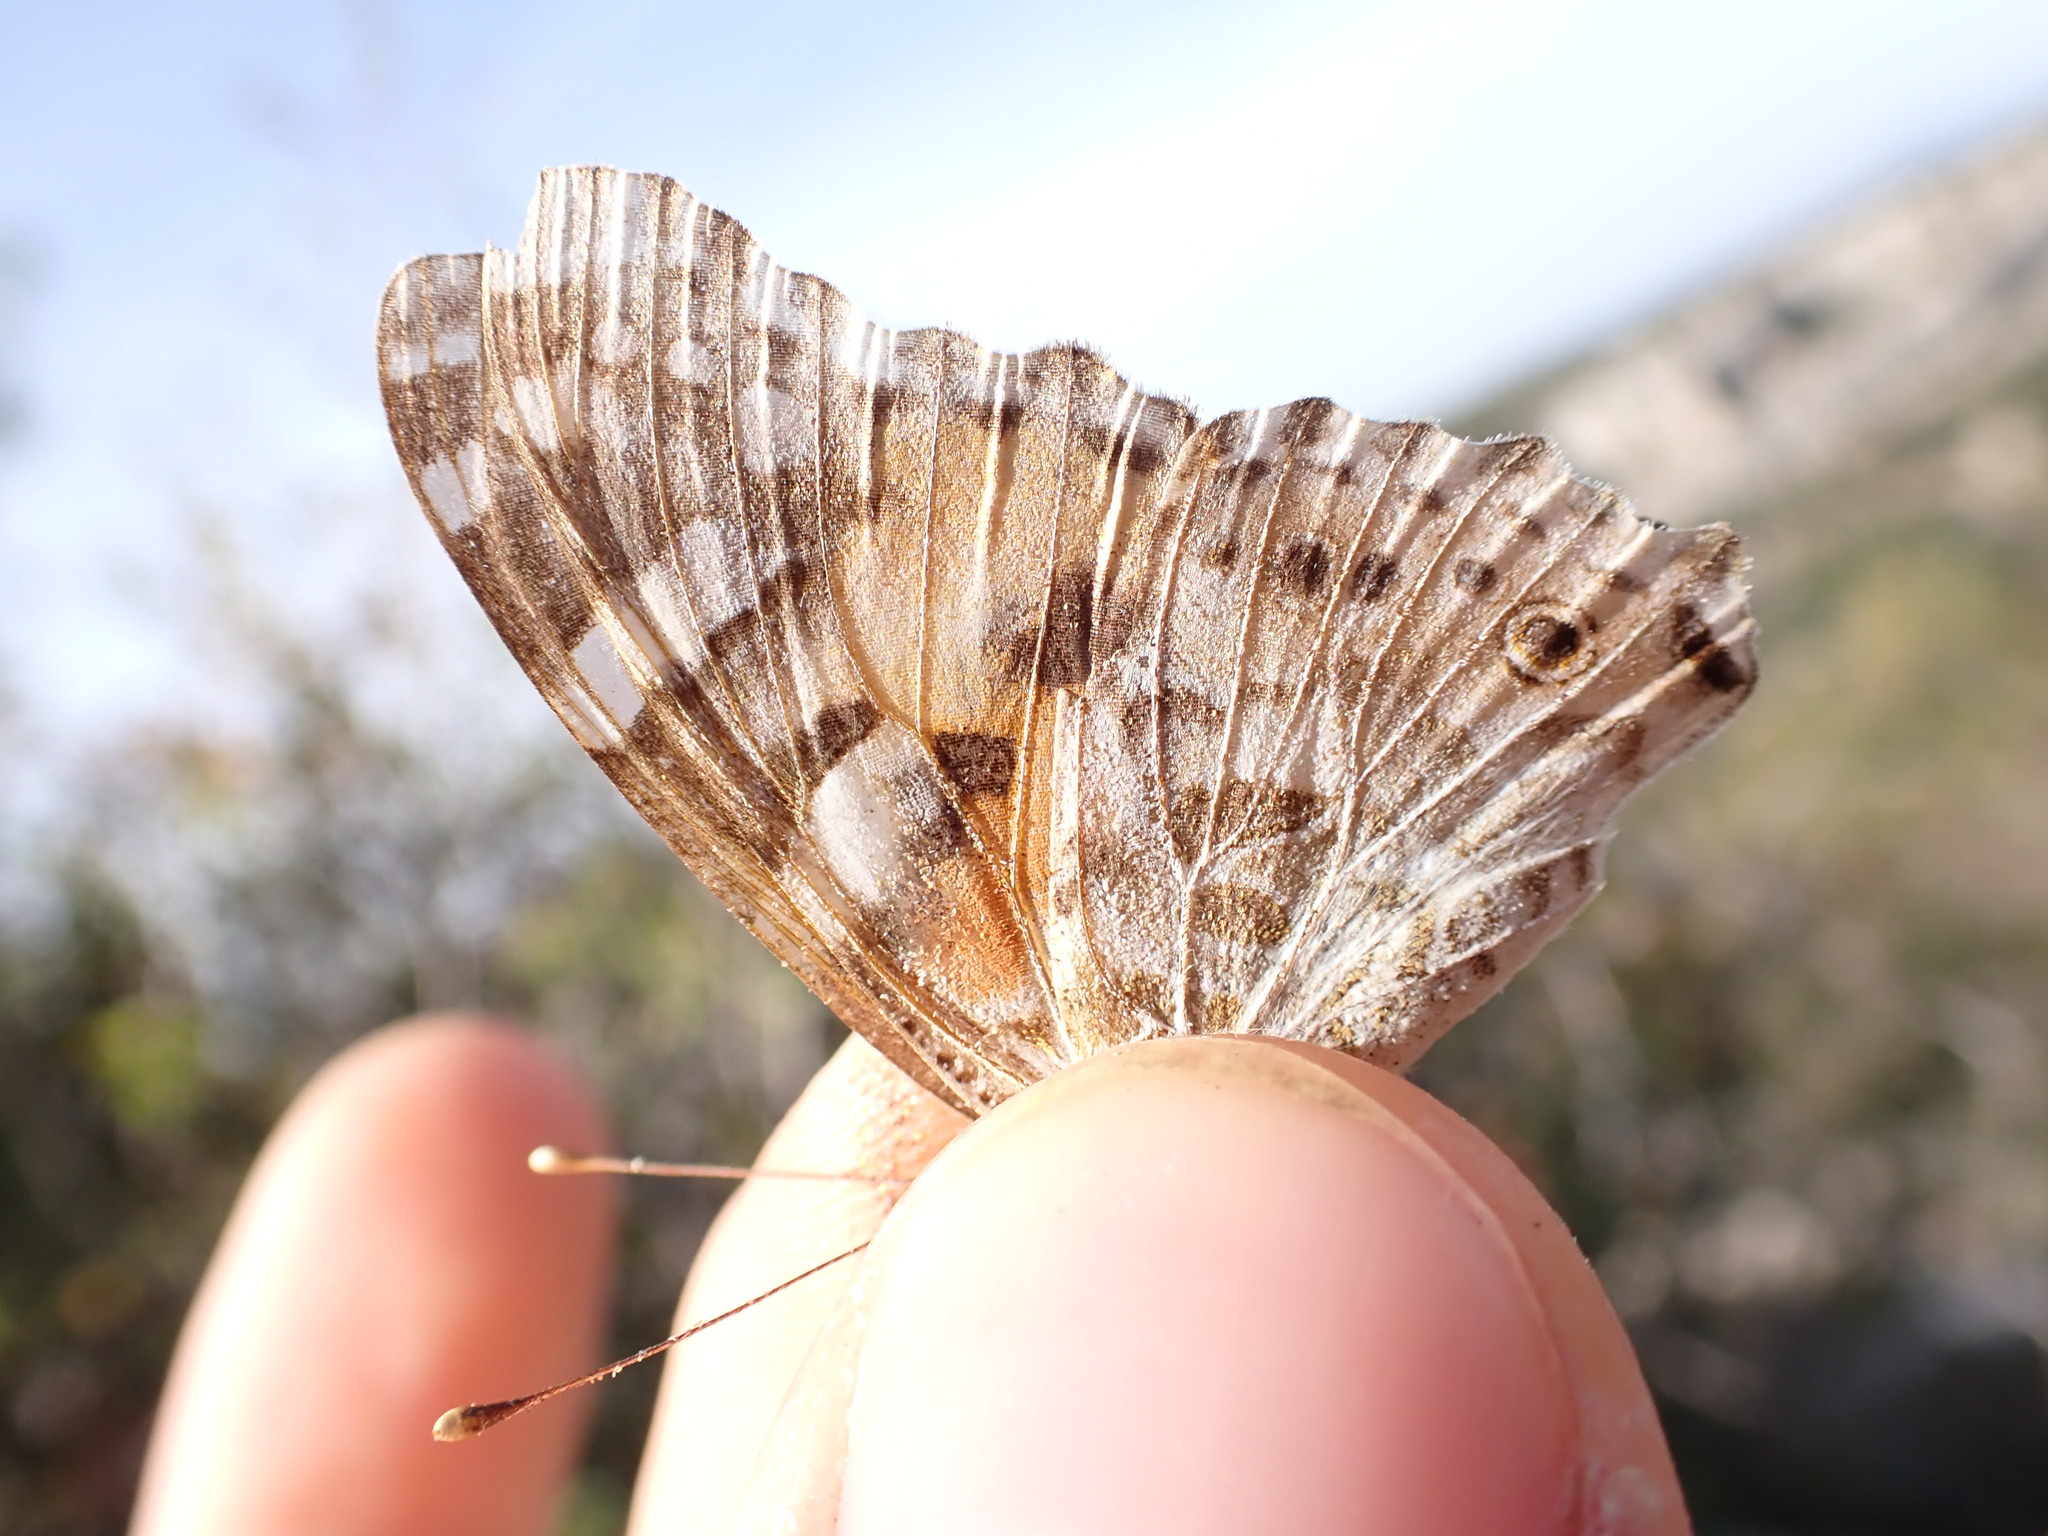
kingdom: Animalia
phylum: Arthropoda
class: Insecta
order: Lepidoptera
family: Nymphalidae
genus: Vanessa
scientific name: Vanessa cardui
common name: Painted lady
